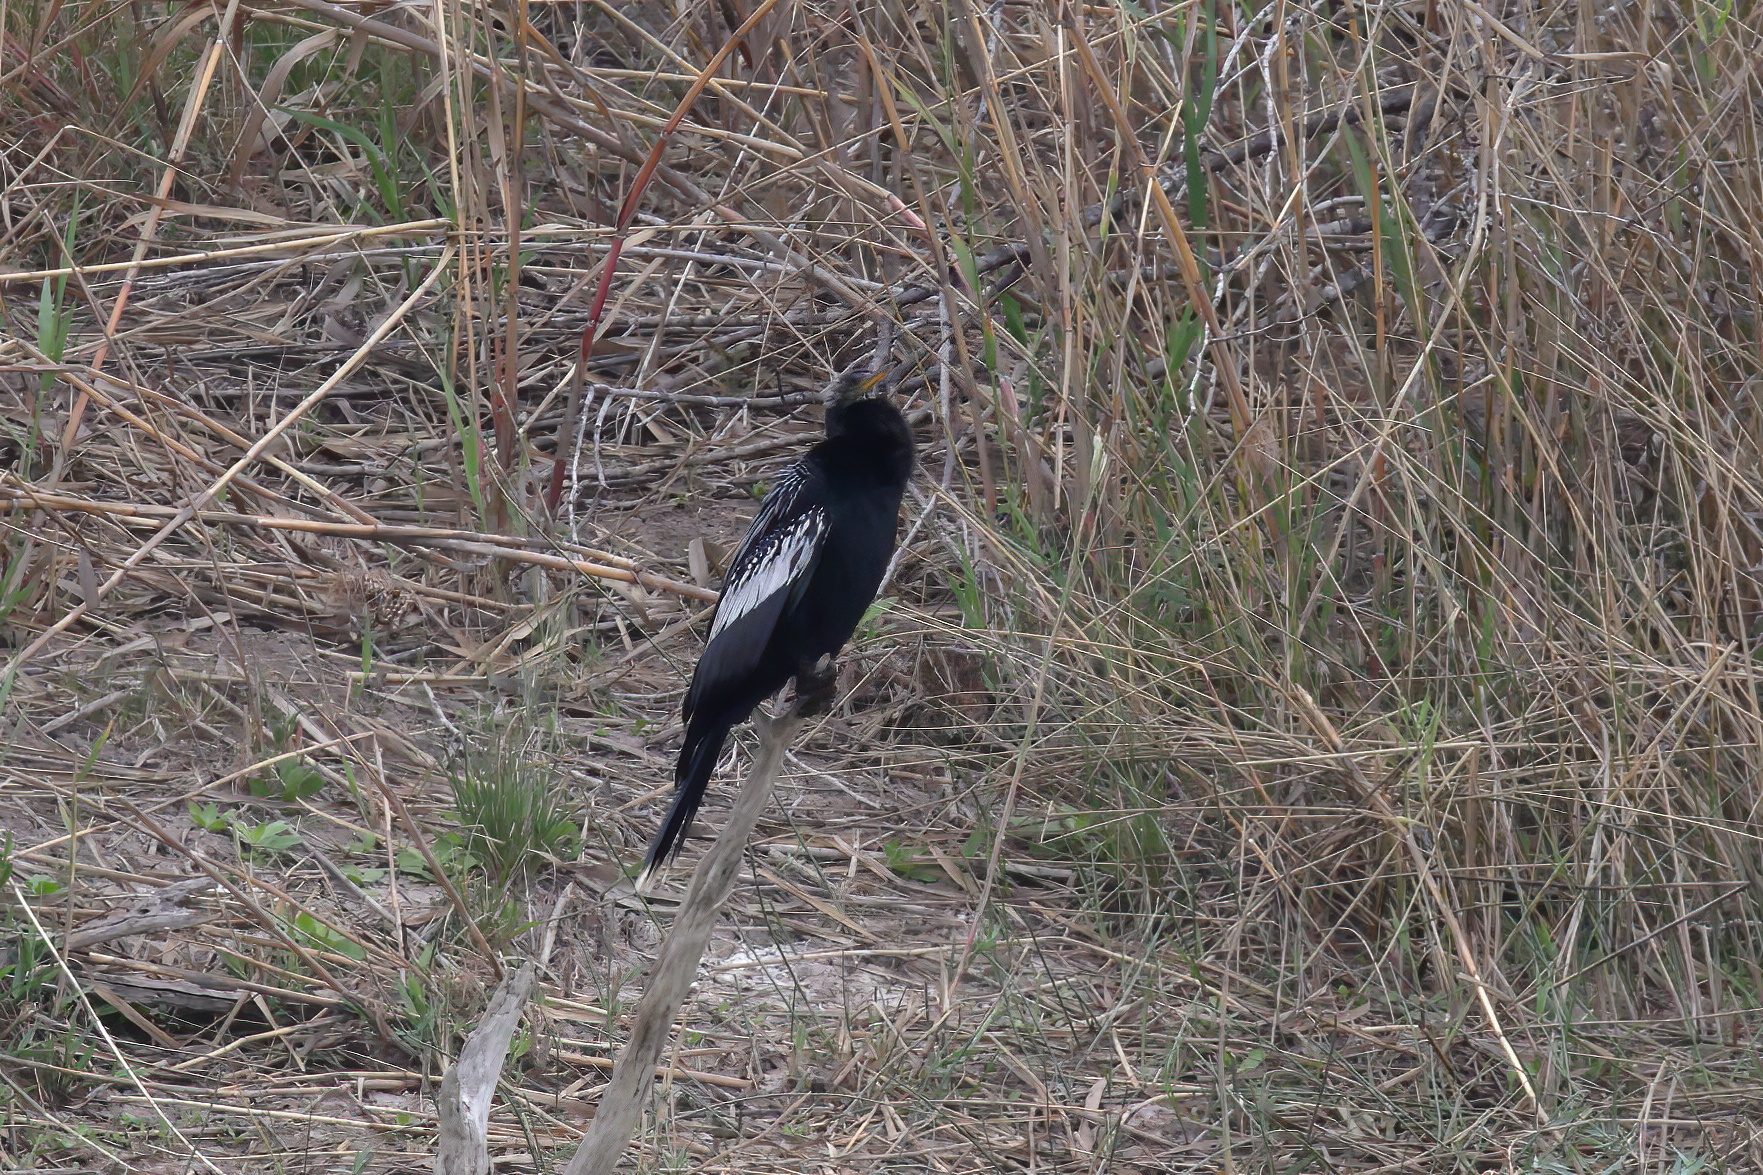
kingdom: Animalia
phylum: Chordata
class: Aves
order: Suliformes
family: Anhingidae
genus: Anhinga
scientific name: Anhinga anhinga
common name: Anhinga
